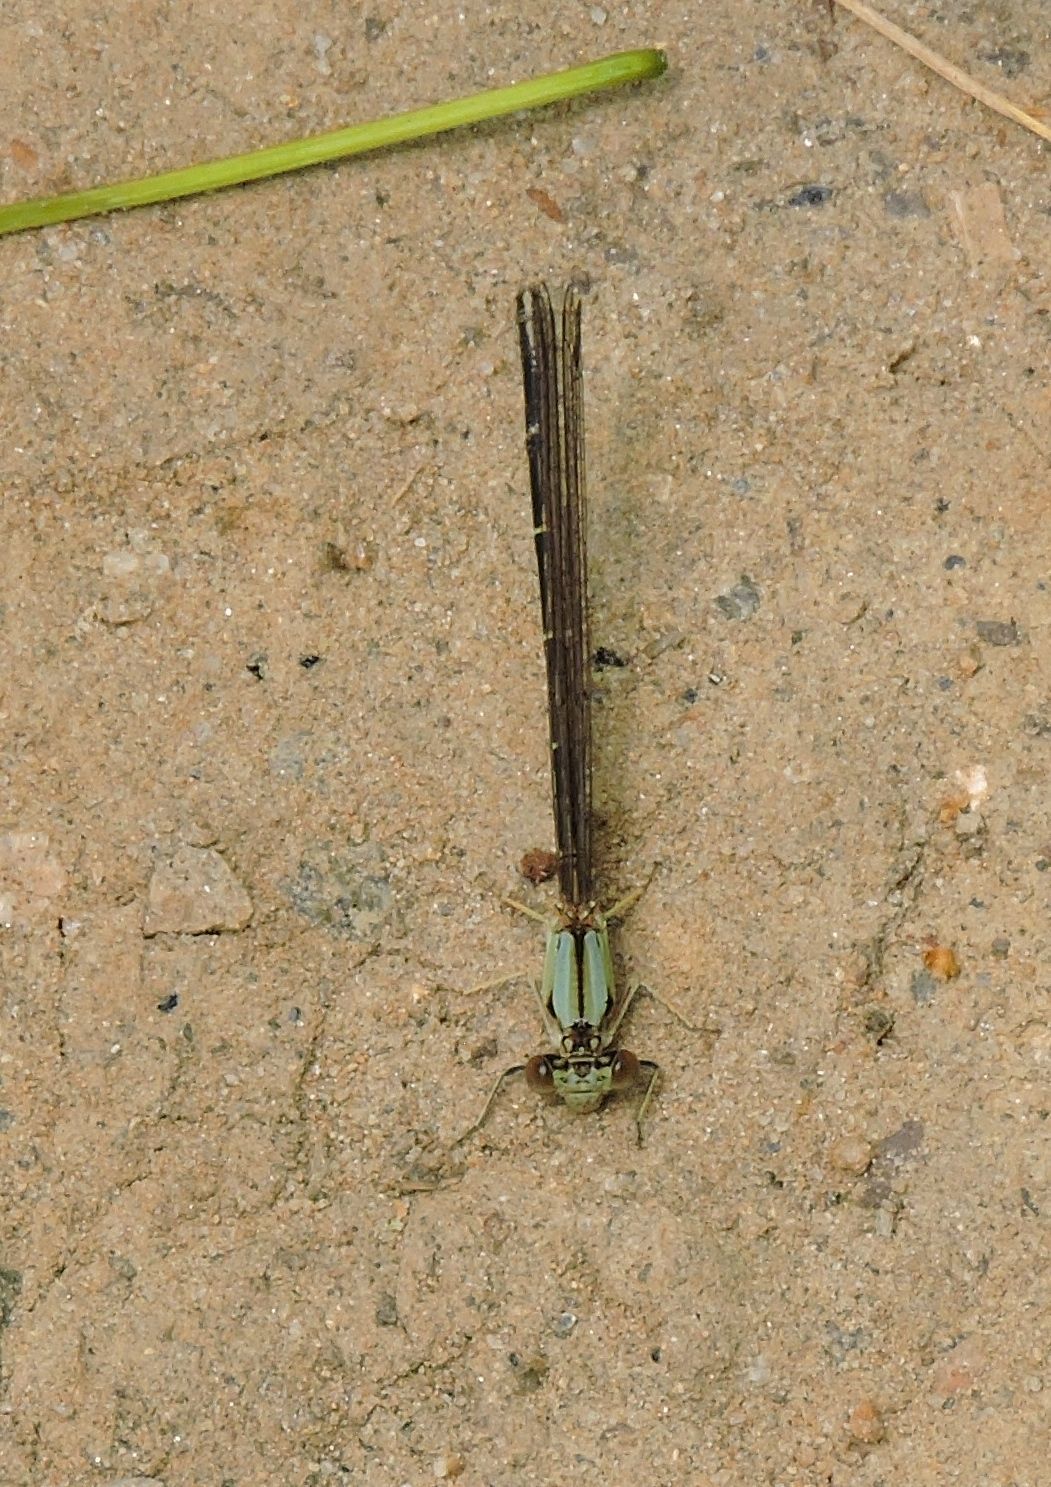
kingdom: Animalia
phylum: Arthropoda
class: Insecta
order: Odonata
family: Coenagrionidae
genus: Argia
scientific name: Argia apicalis
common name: Blue-fronted dancer
